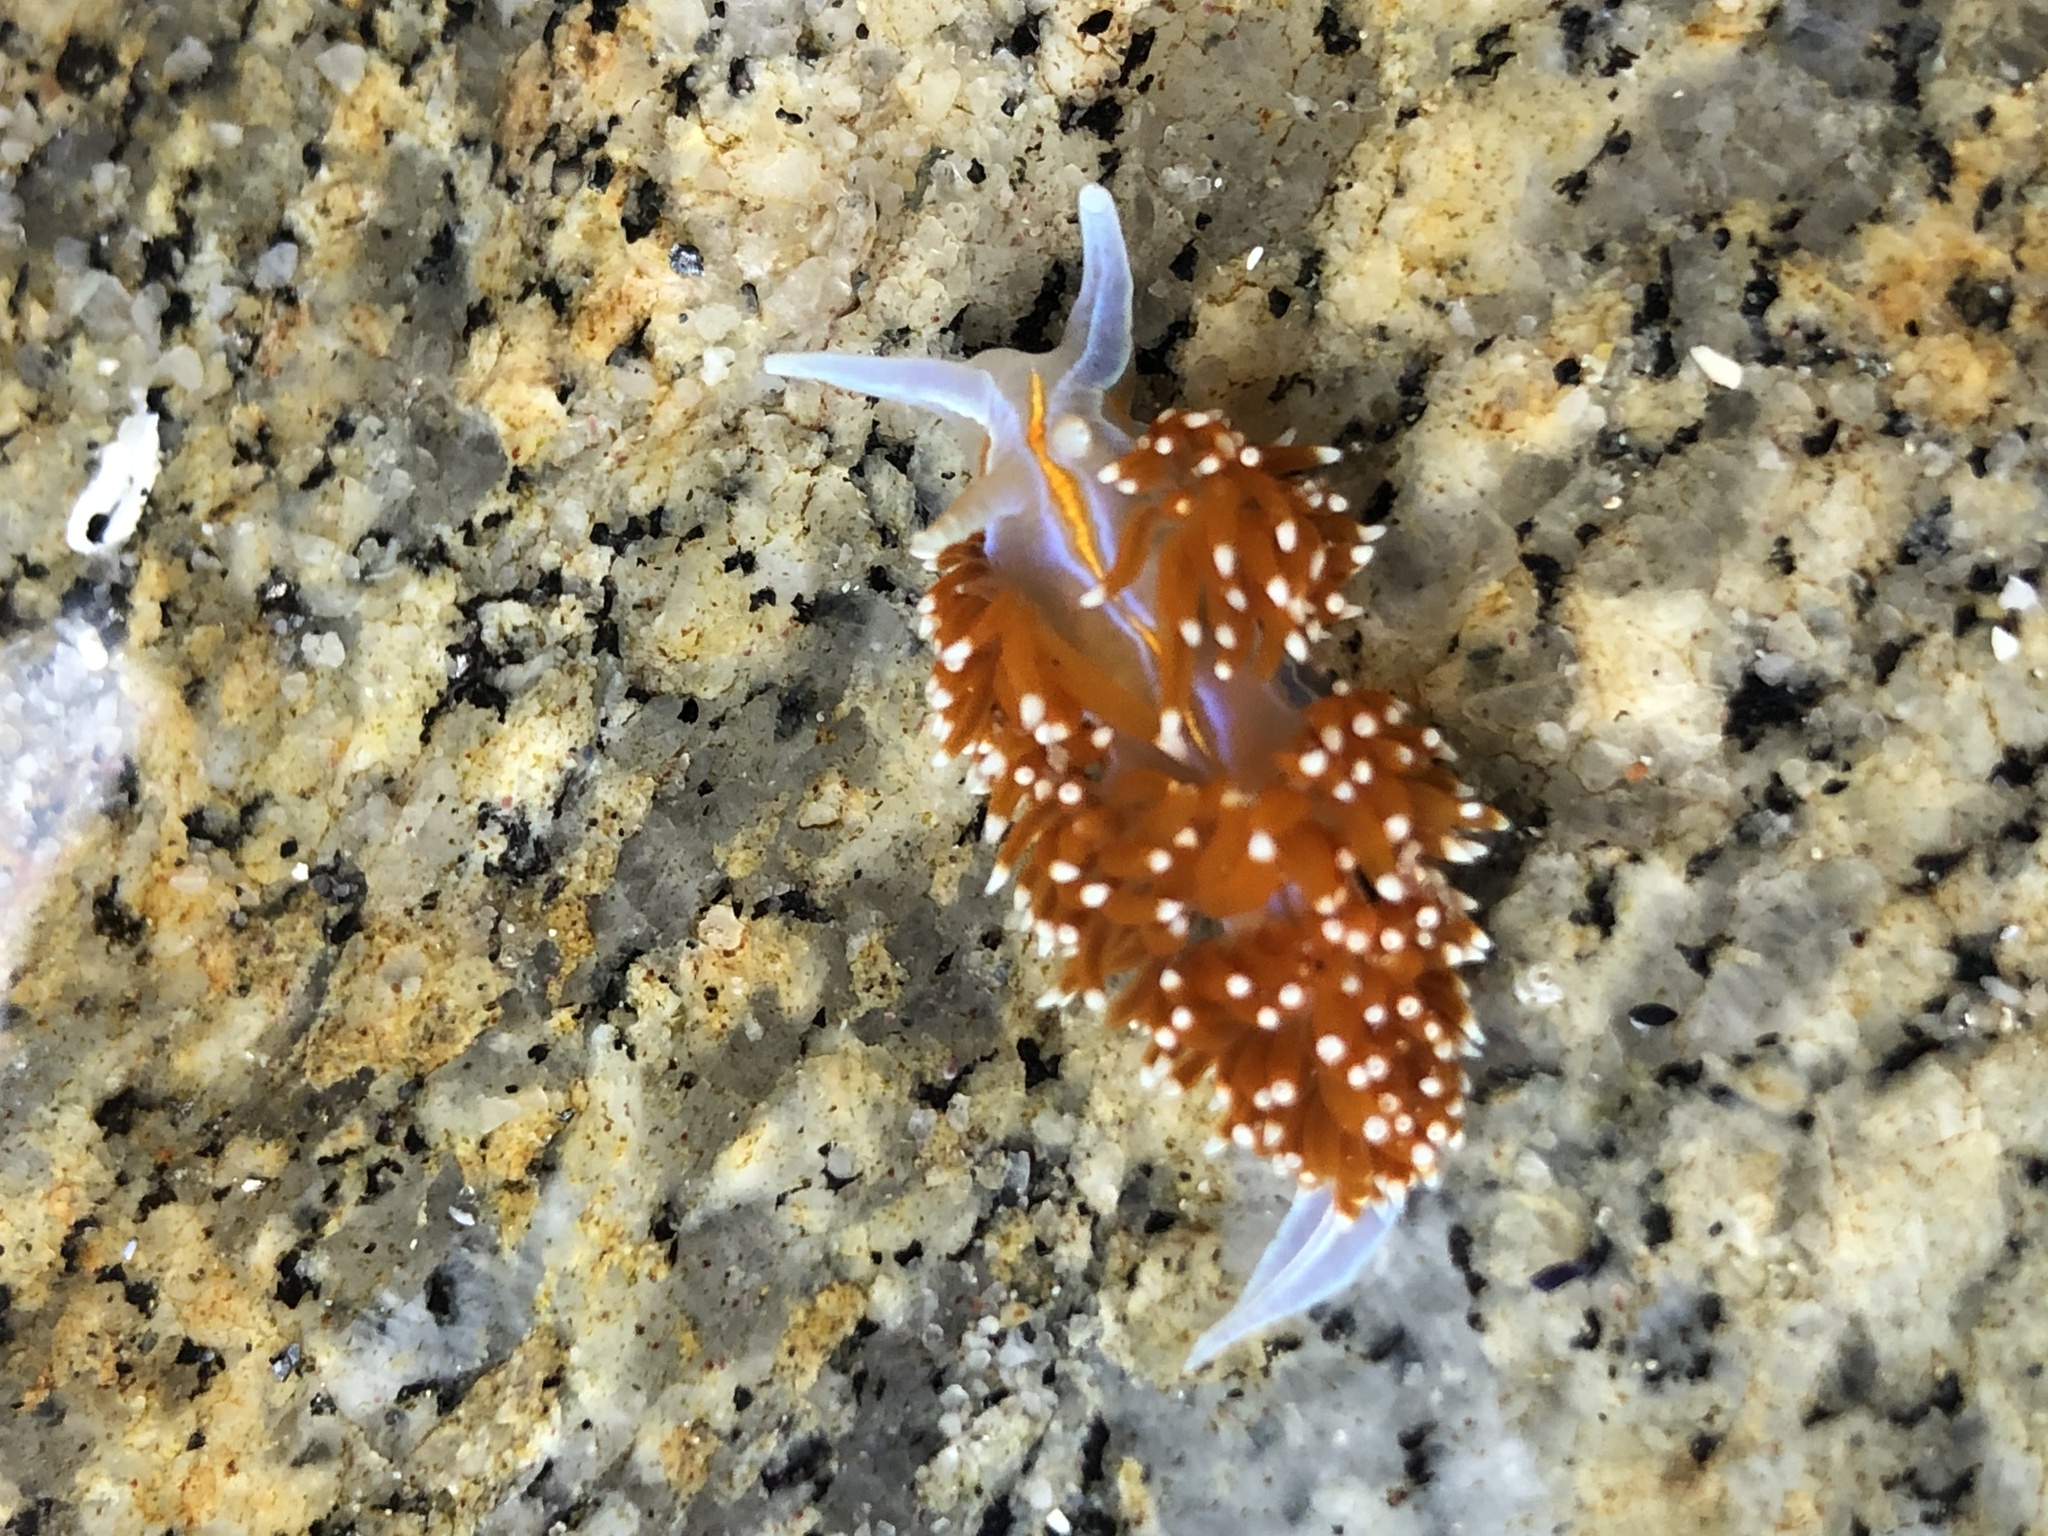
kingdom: Animalia
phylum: Mollusca
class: Gastropoda
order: Nudibranchia
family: Myrrhinidae
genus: Hermissenda
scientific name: Hermissenda opalescens
